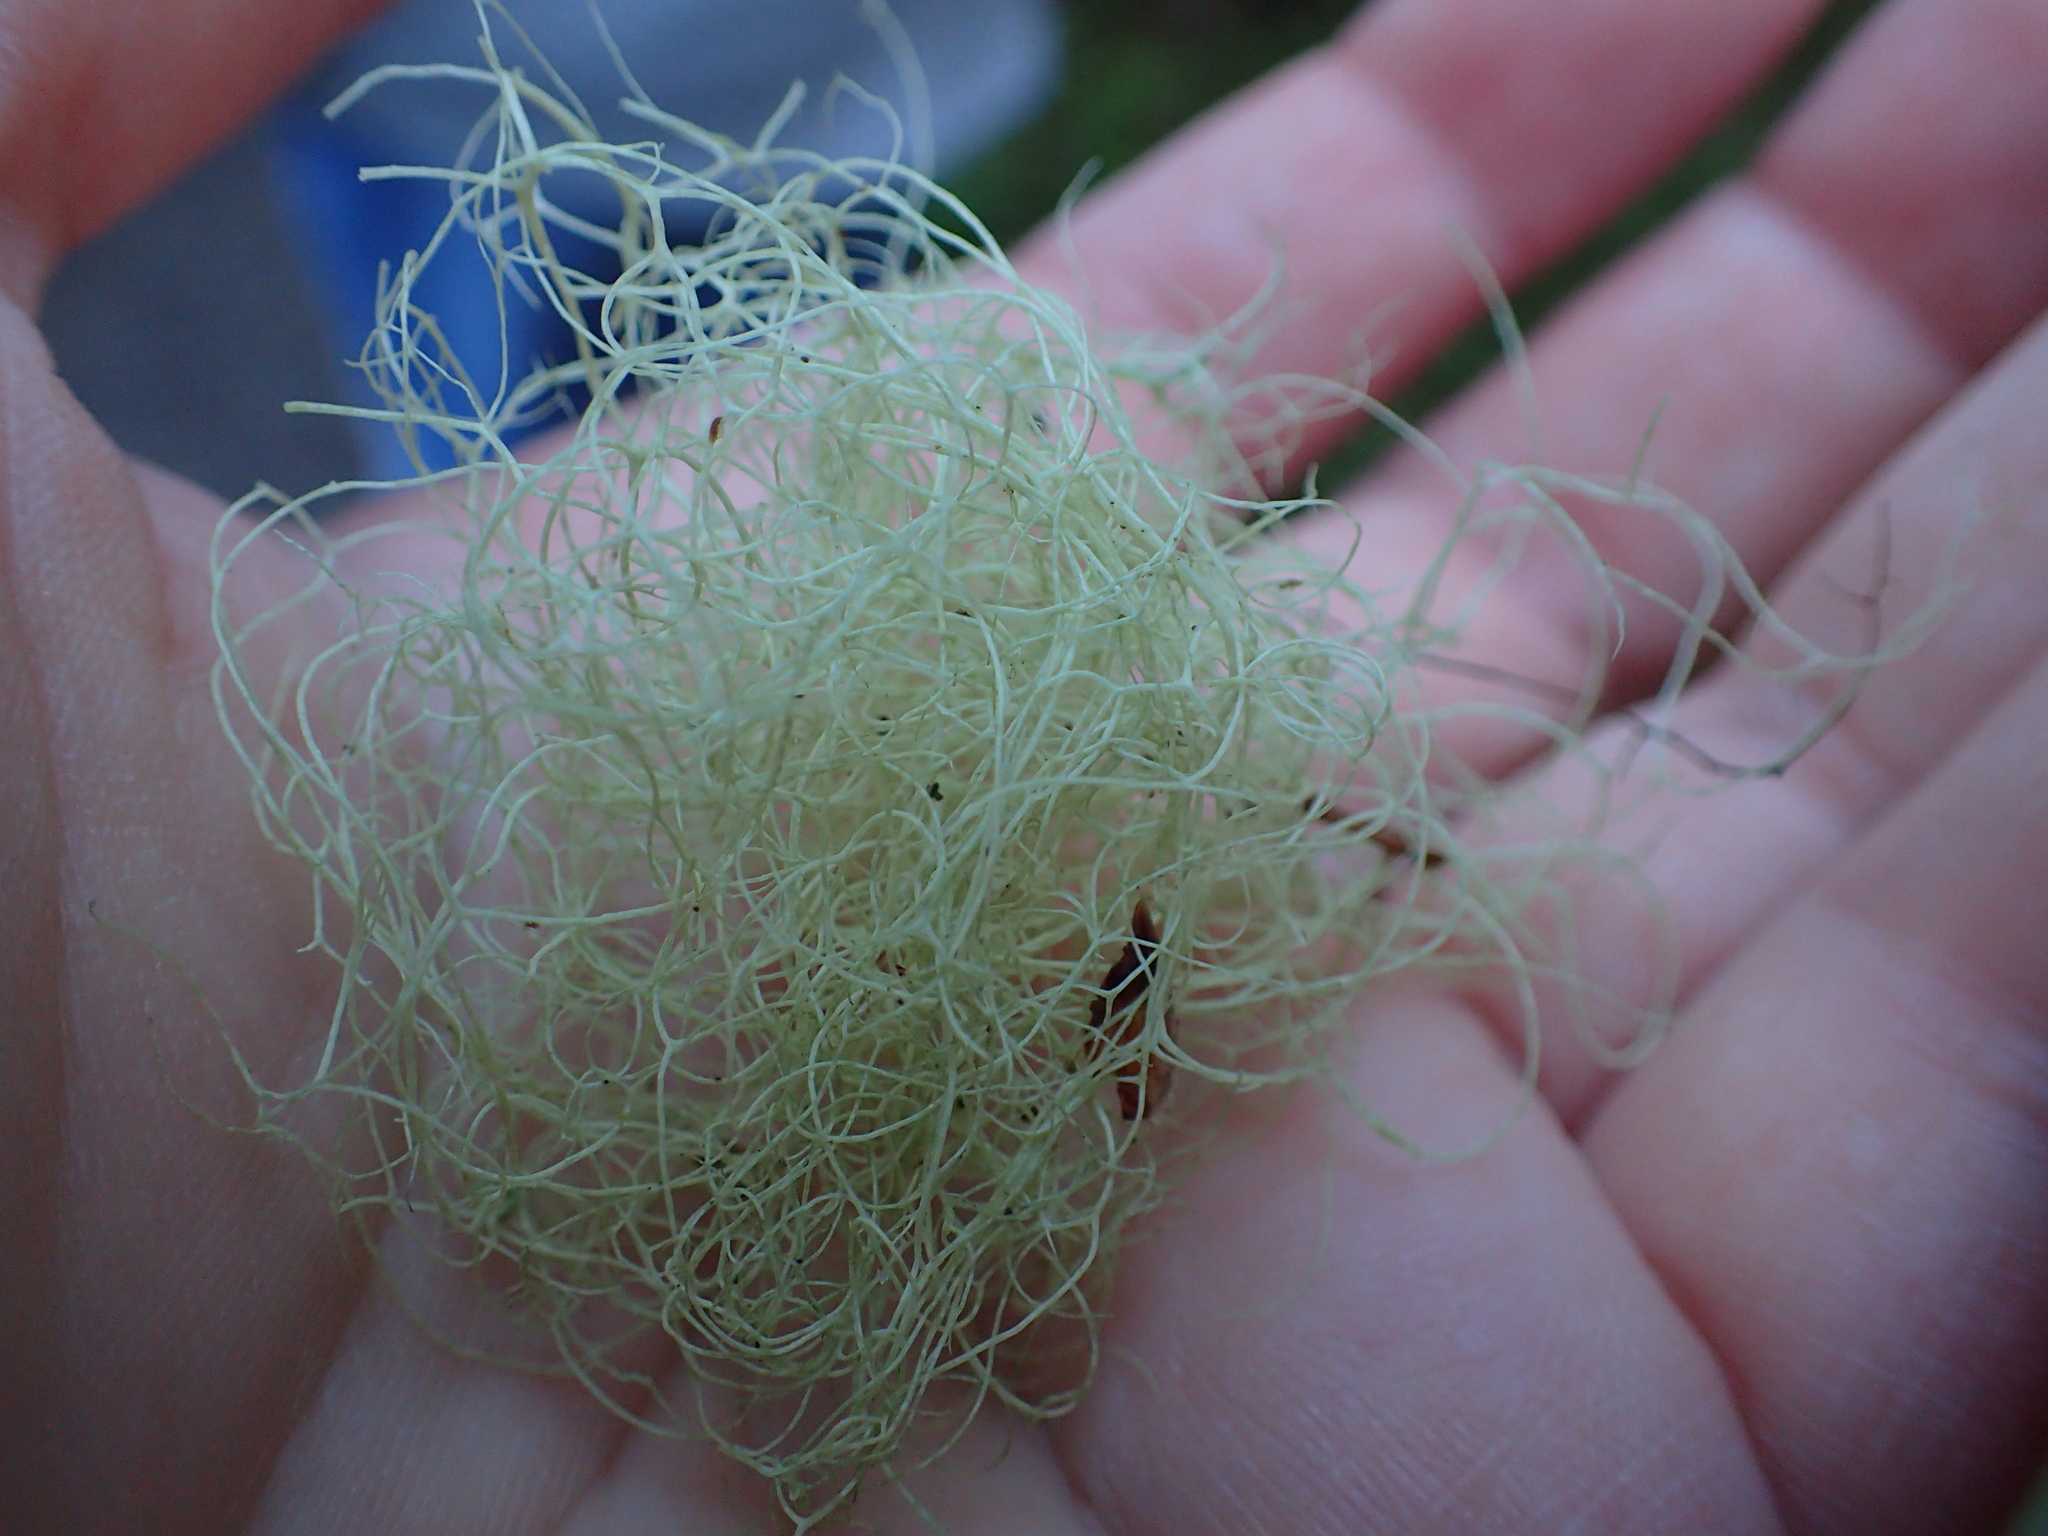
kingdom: Fungi
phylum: Ascomycota
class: Lecanoromycetes
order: Lecanorales
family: Parmeliaceae
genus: Alectoria
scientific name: Alectoria sarmentosa
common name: Witch's hair
